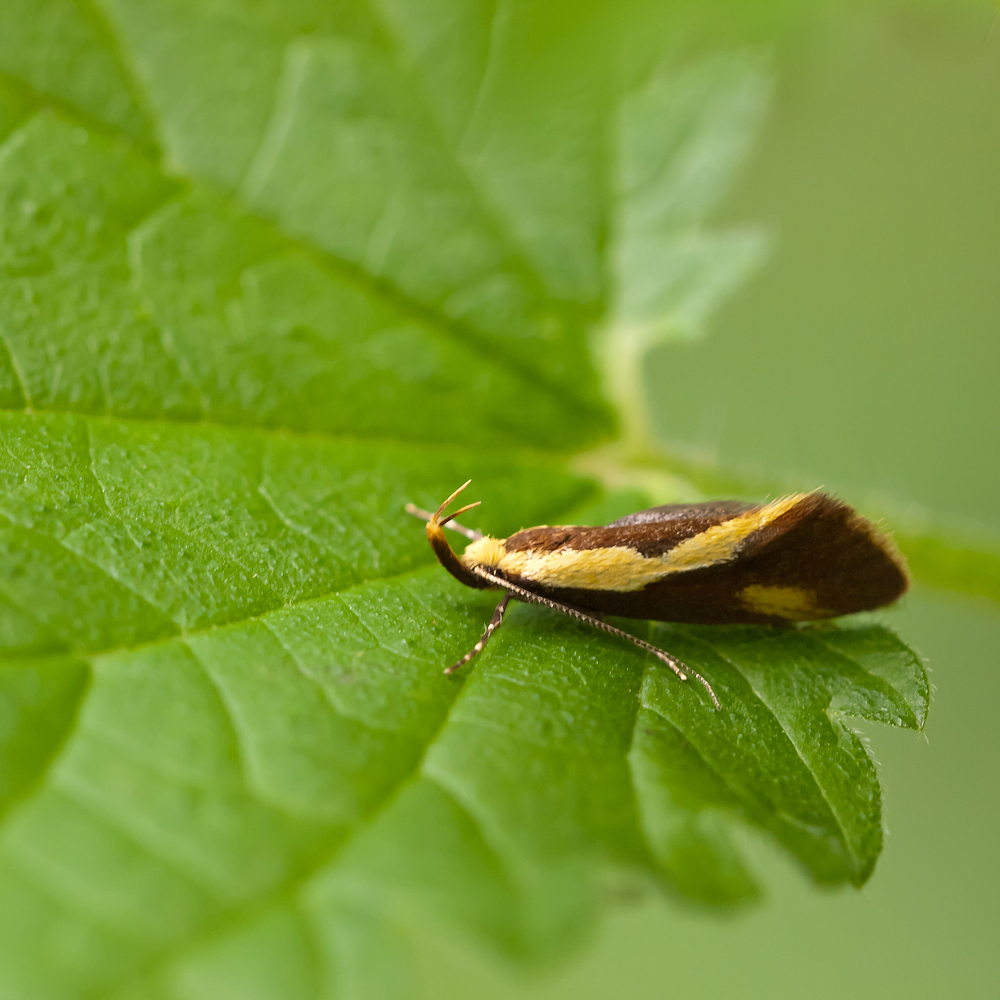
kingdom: Animalia
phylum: Arthropoda
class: Insecta
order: Lepidoptera
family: Oecophoridae
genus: Harpella
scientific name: Harpella forficella
